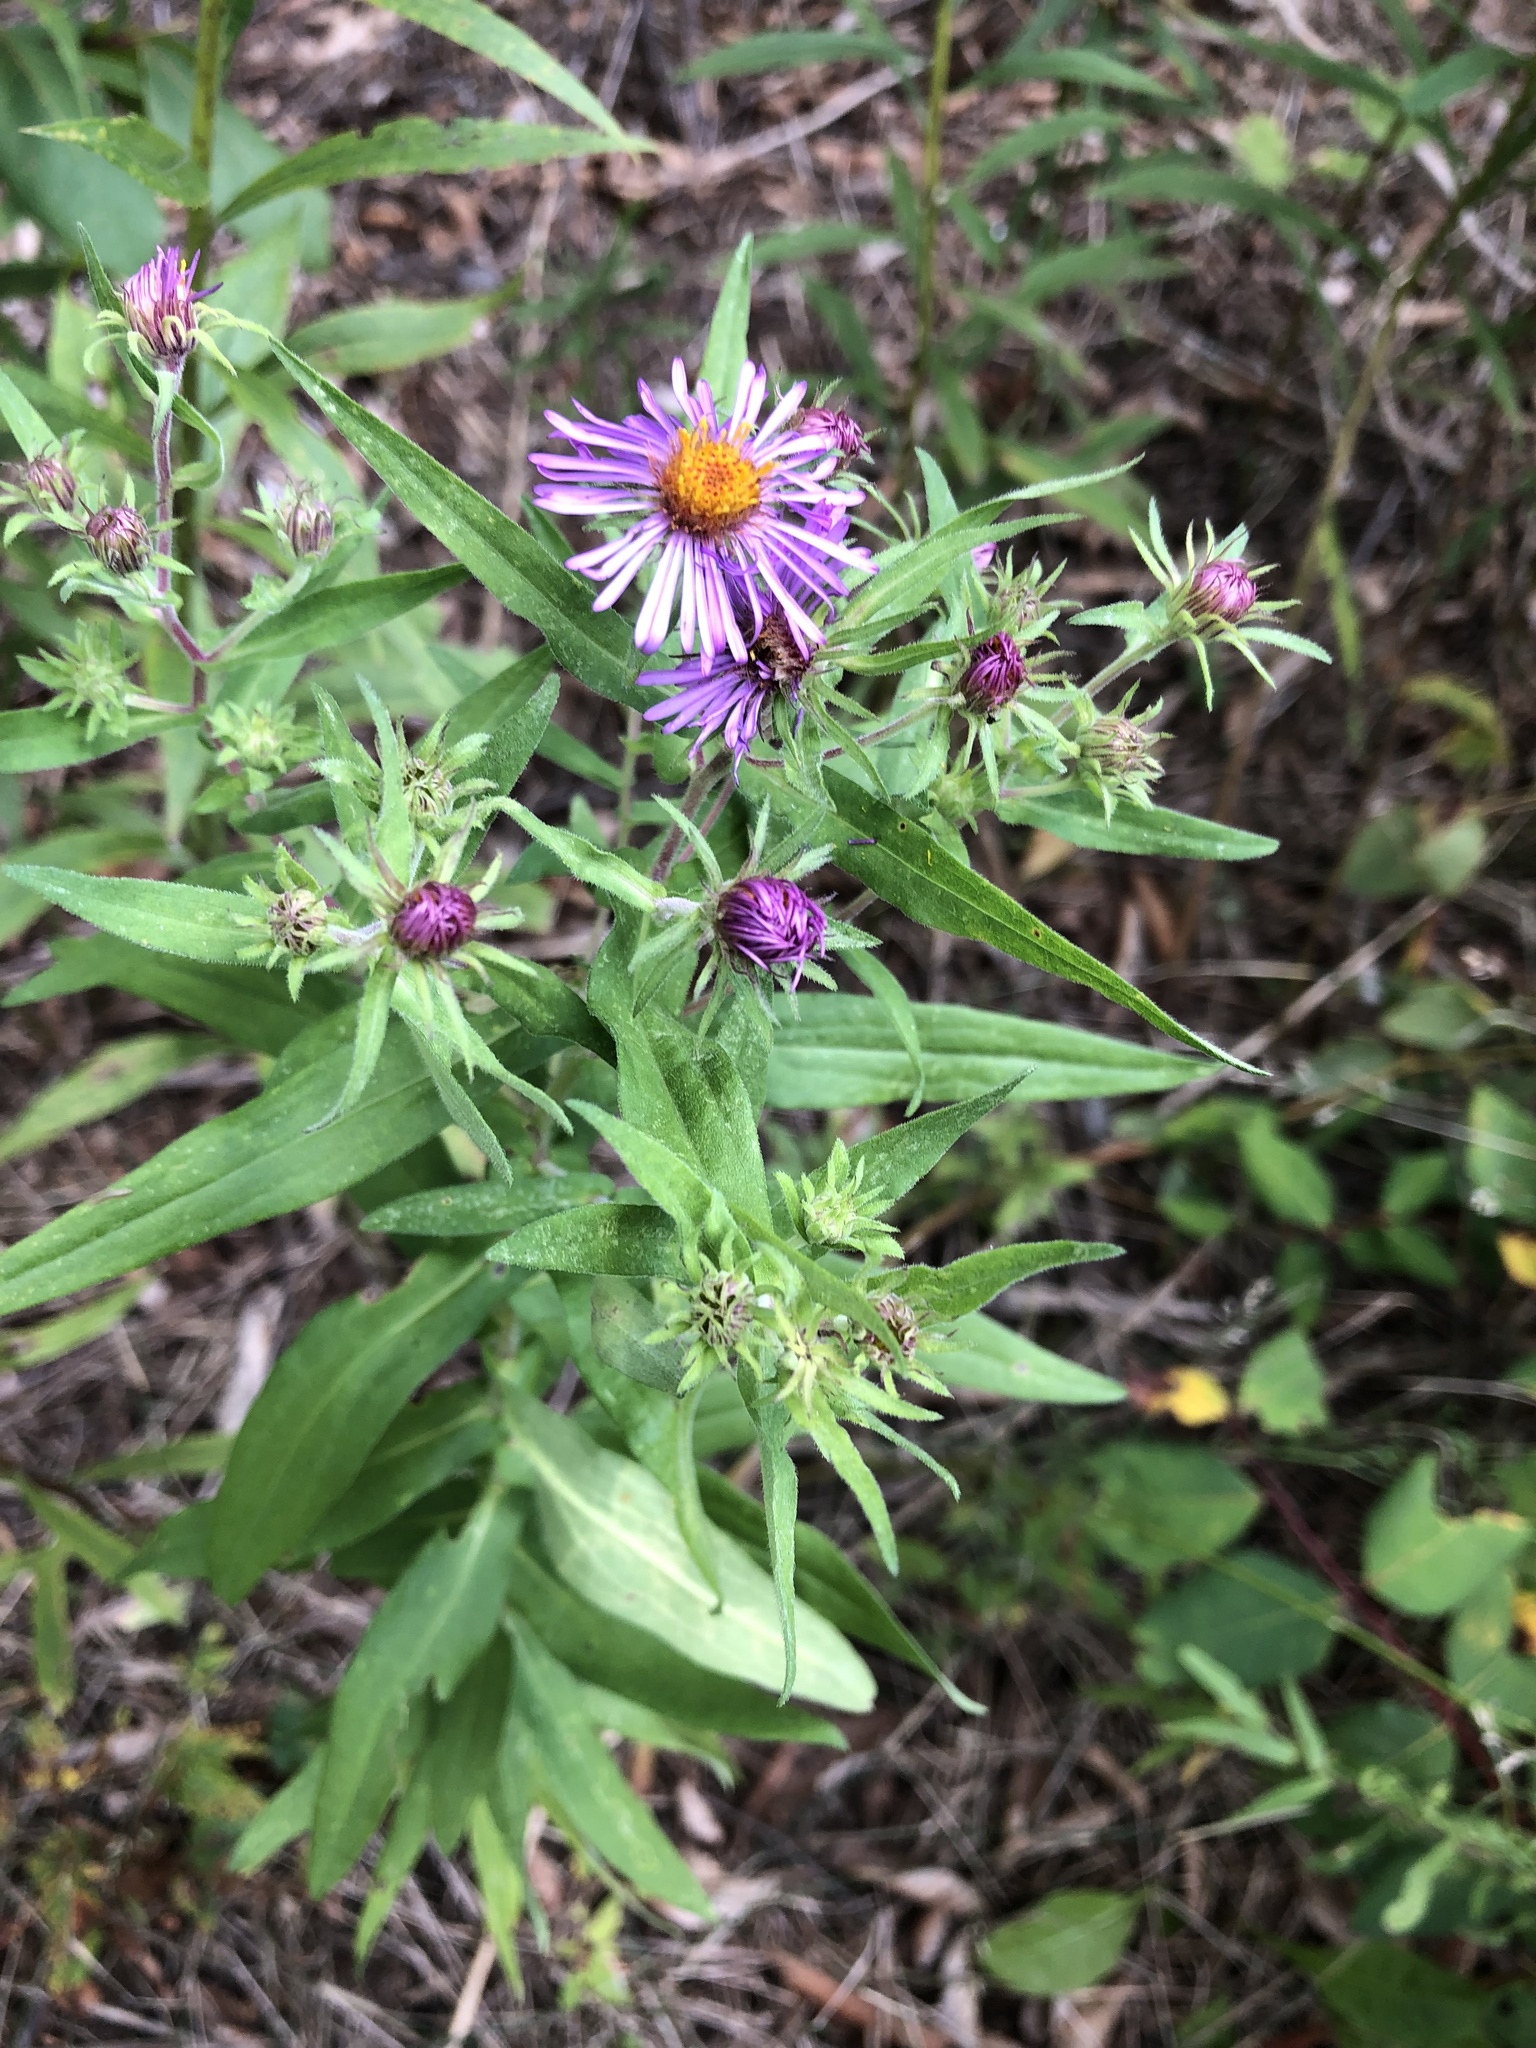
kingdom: Plantae
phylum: Tracheophyta
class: Magnoliopsida
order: Asterales
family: Asteraceae
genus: Symphyotrichum
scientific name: Symphyotrichum novae-angliae
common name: Michaelmas daisy
